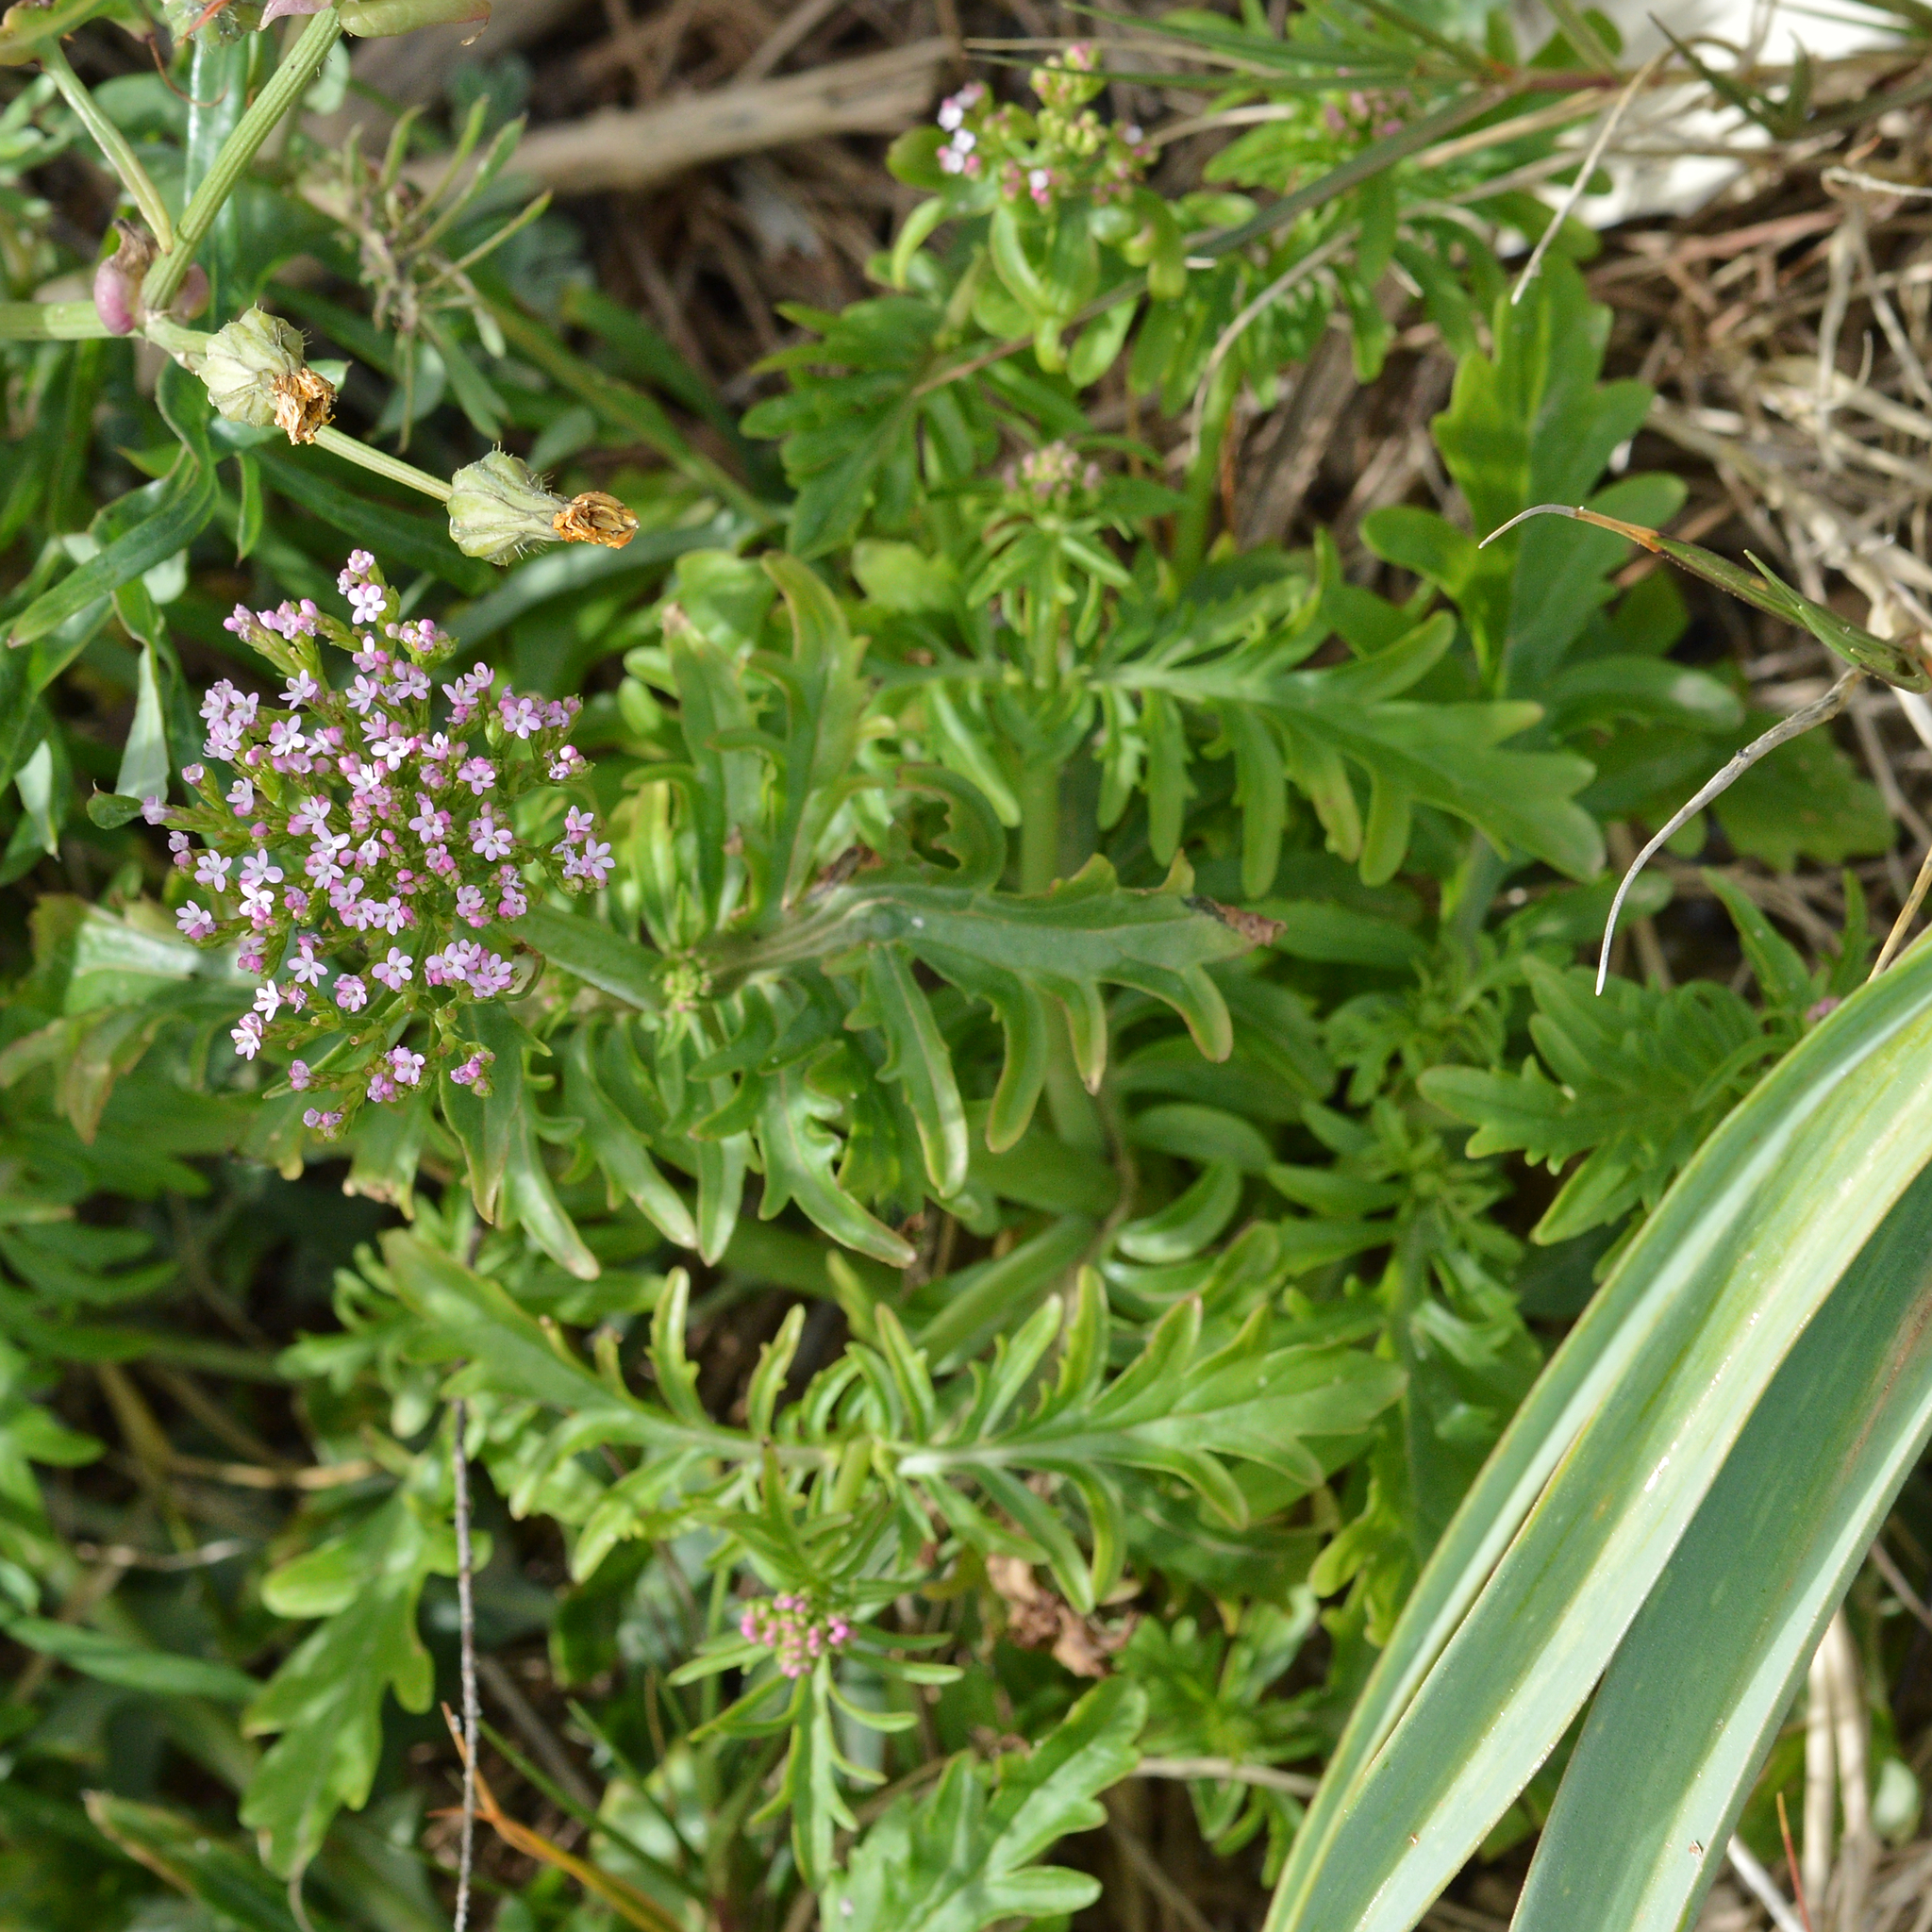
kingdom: Plantae
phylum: Tracheophyta
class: Magnoliopsida
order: Dipsacales
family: Caprifoliaceae
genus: Centranthus
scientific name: Centranthus calcitrapae
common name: Annual valerian
